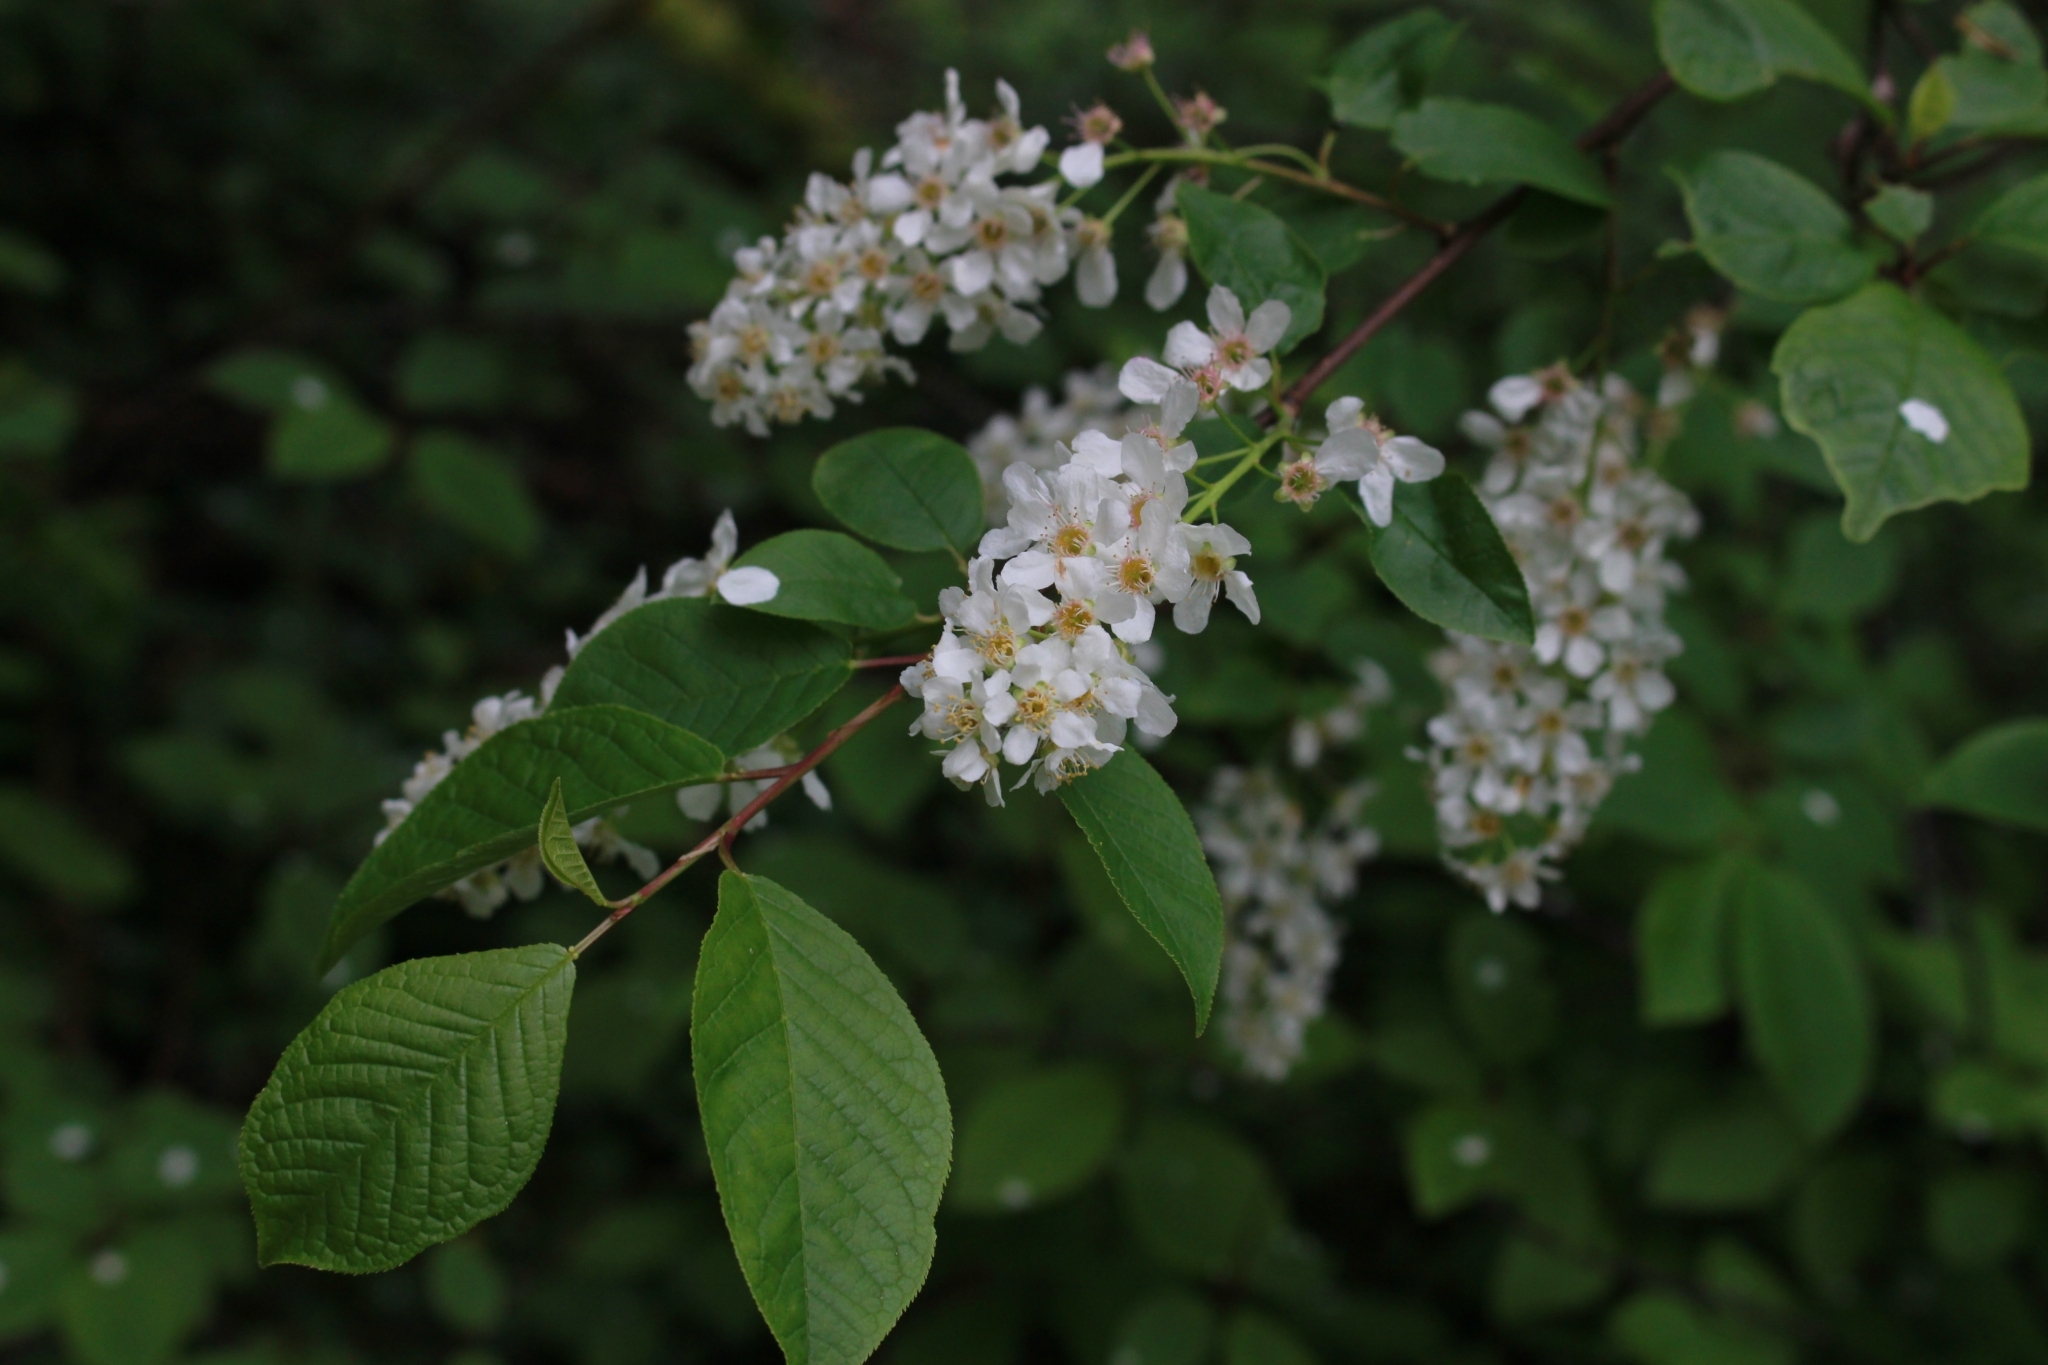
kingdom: Plantae
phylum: Tracheophyta
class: Magnoliopsida
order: Rosales
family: Rosaceae
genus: Prunus
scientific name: Prunus padus
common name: Bird cherry
